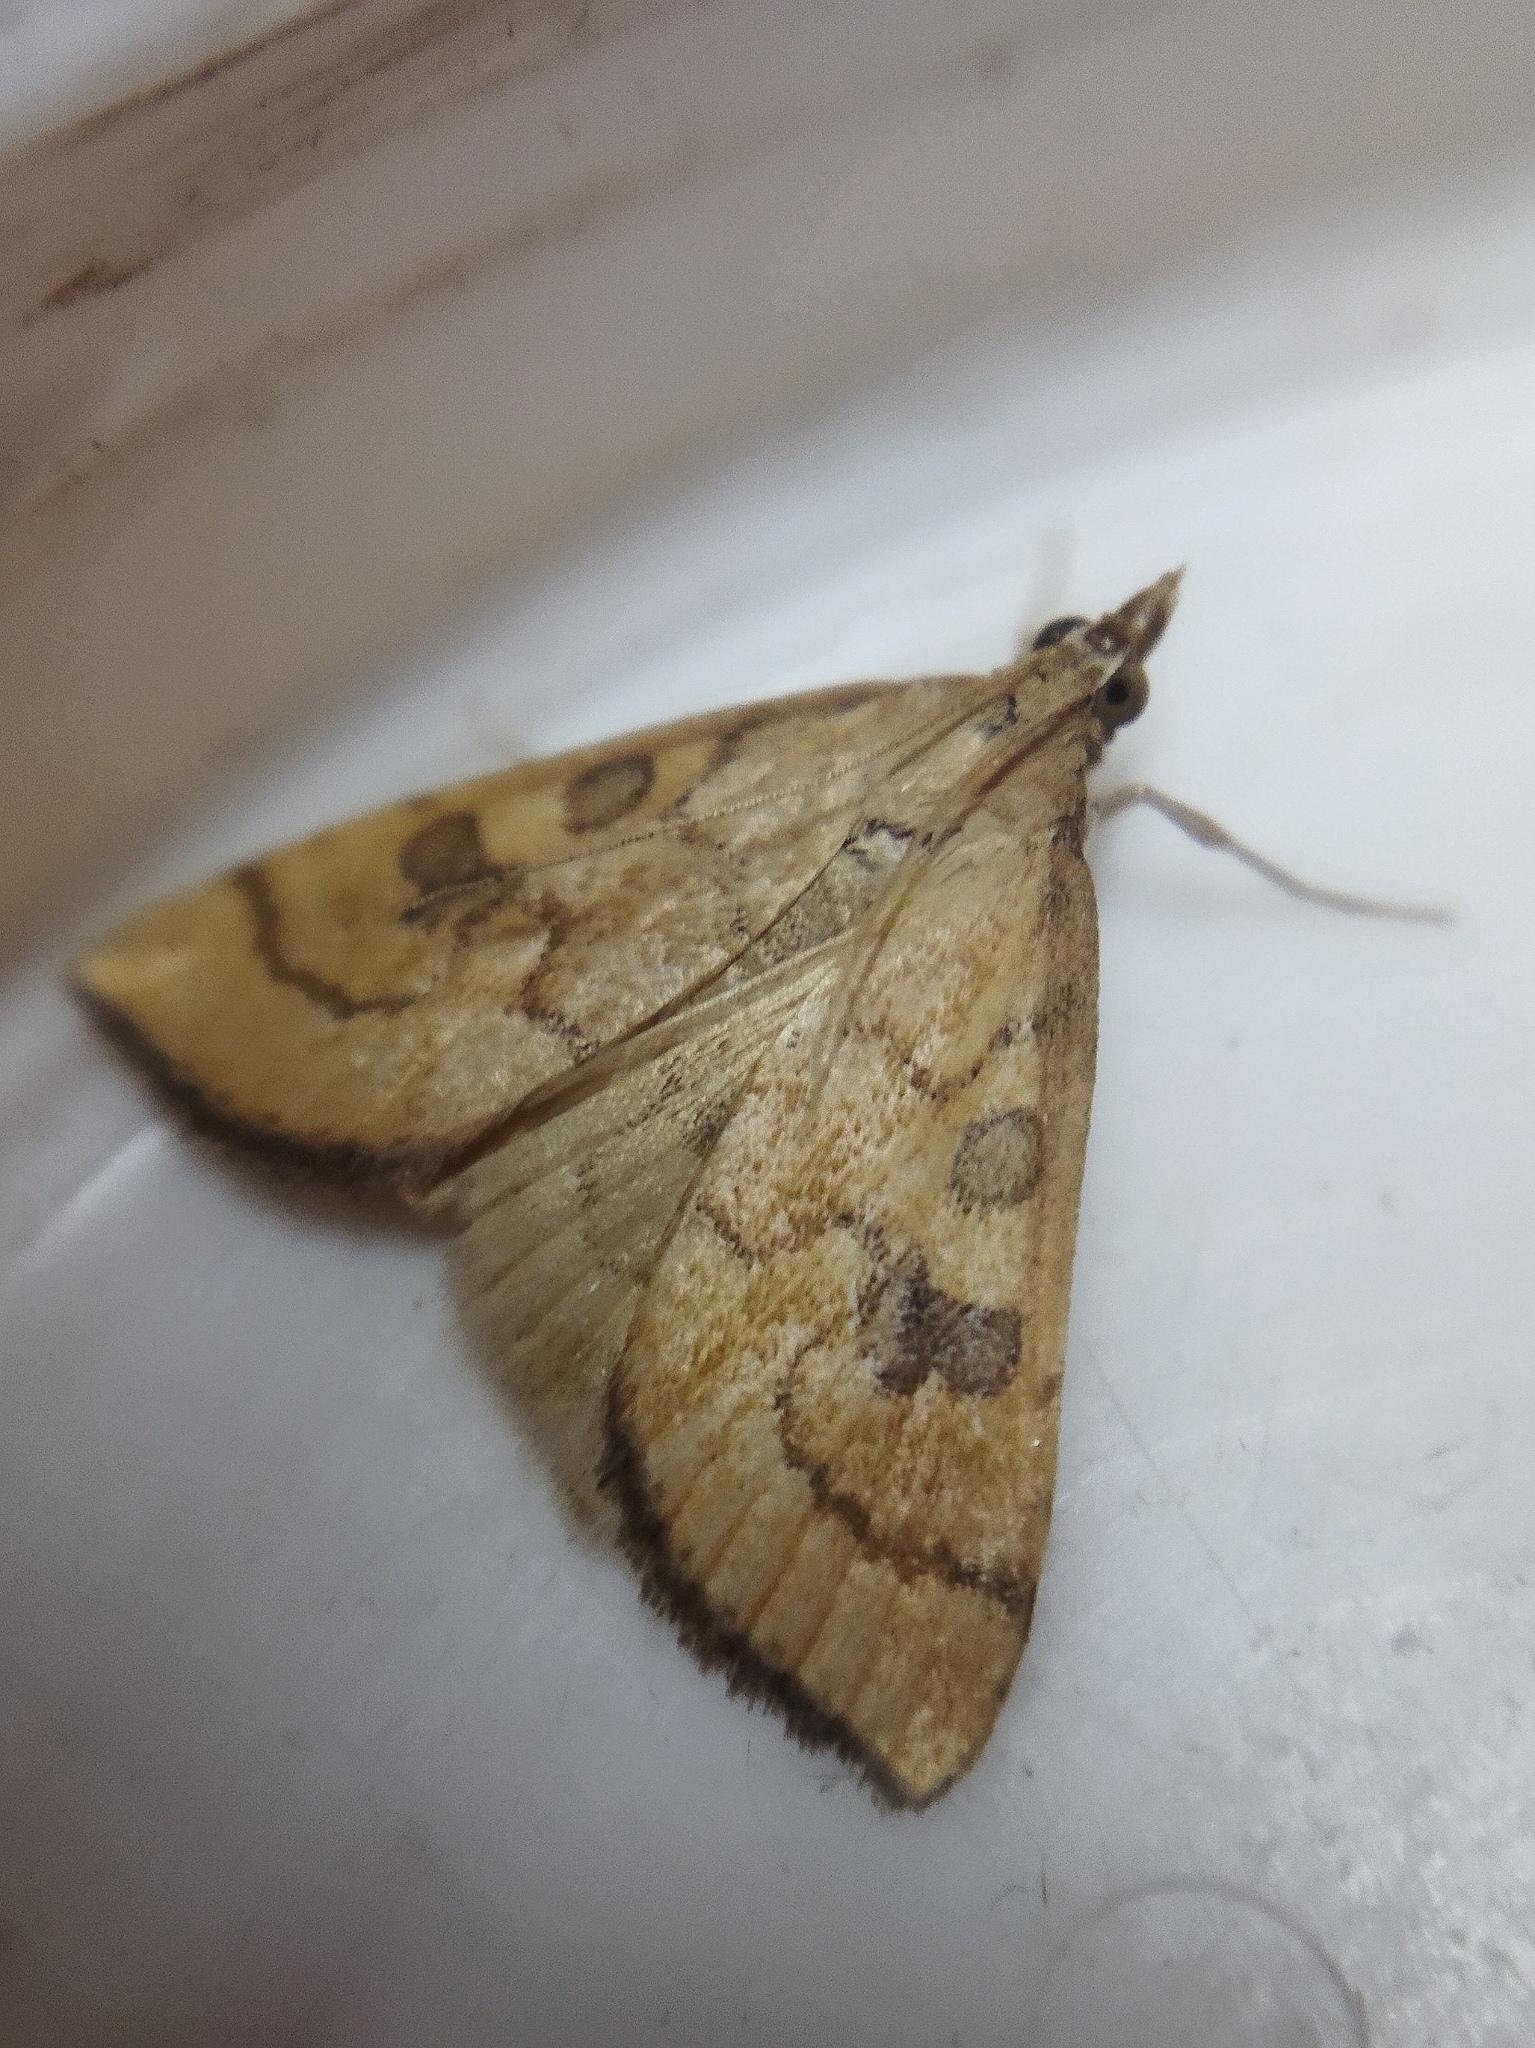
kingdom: Animalia
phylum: Arthropoda
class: Insecta
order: Lepidoptera
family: Crambidae
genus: Udea
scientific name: Udea languidalis
